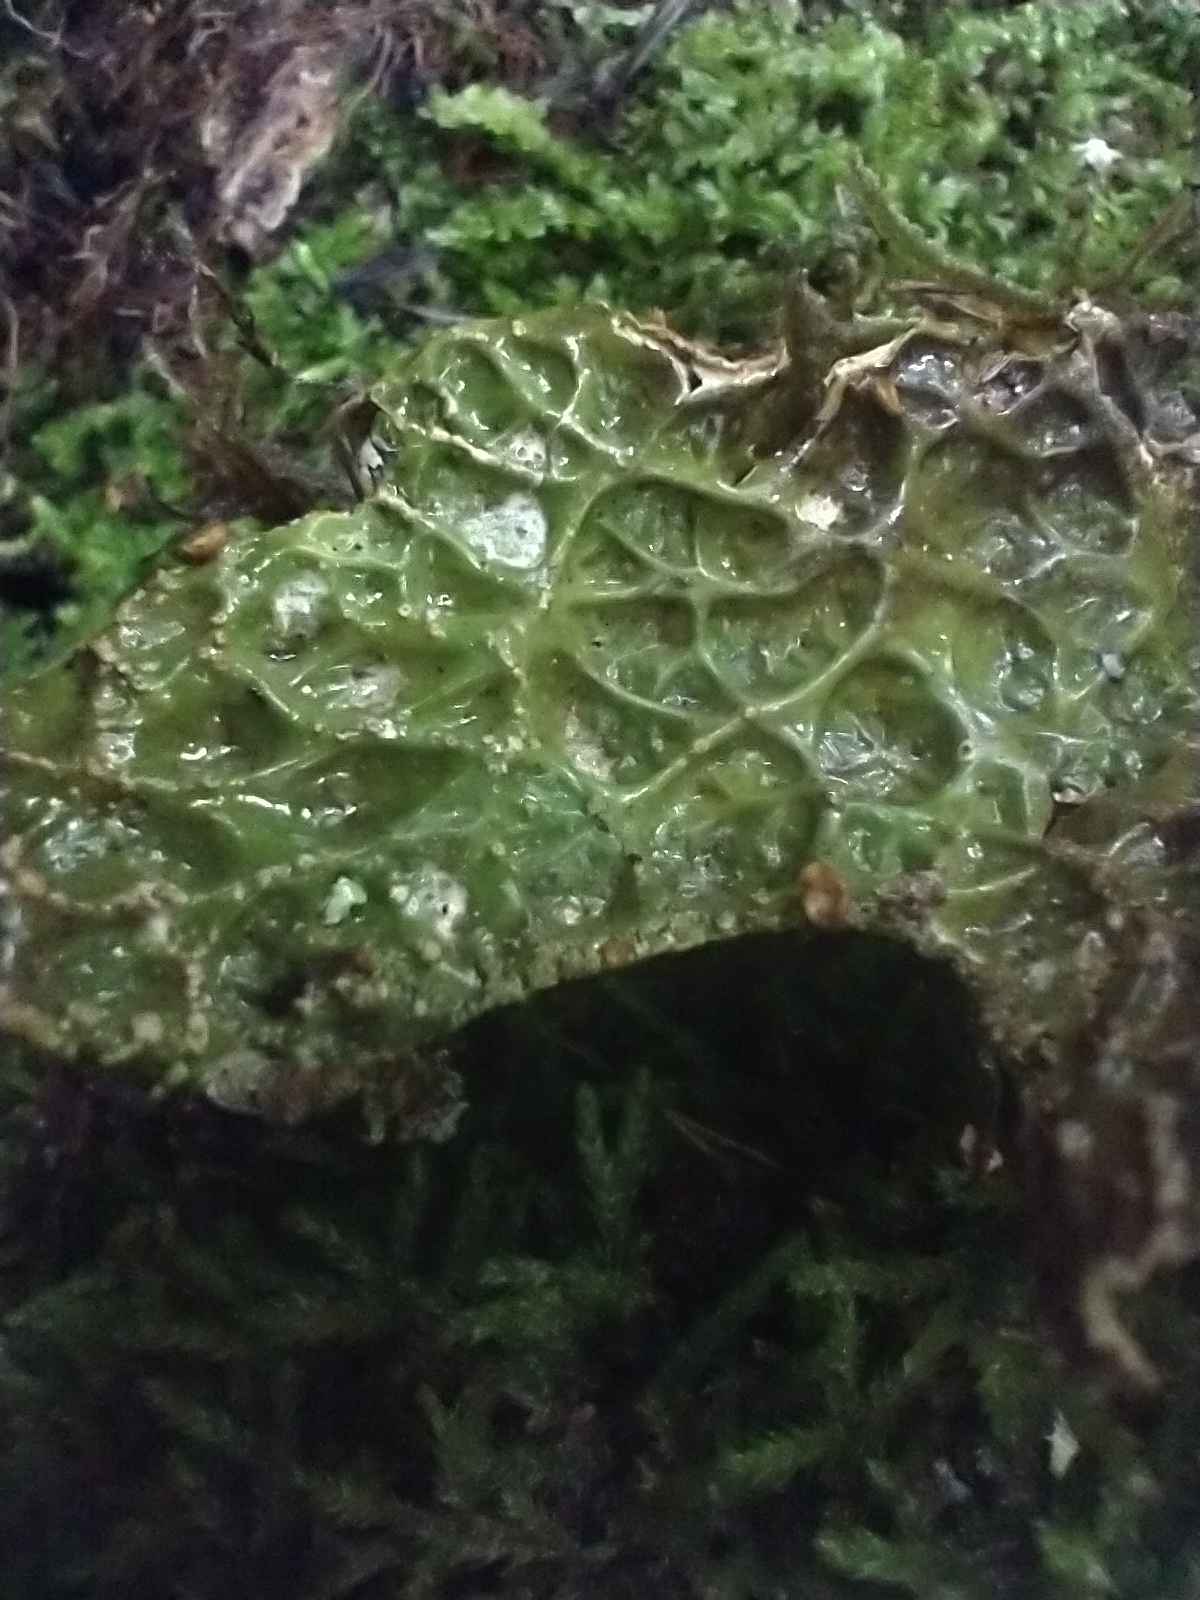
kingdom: Fungi
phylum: Ascomycota
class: Lecanoromycetes
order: Peltigerales
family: Lobariaceae
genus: Lobaria
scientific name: Lobaria pulmonaria
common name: Lungwort
